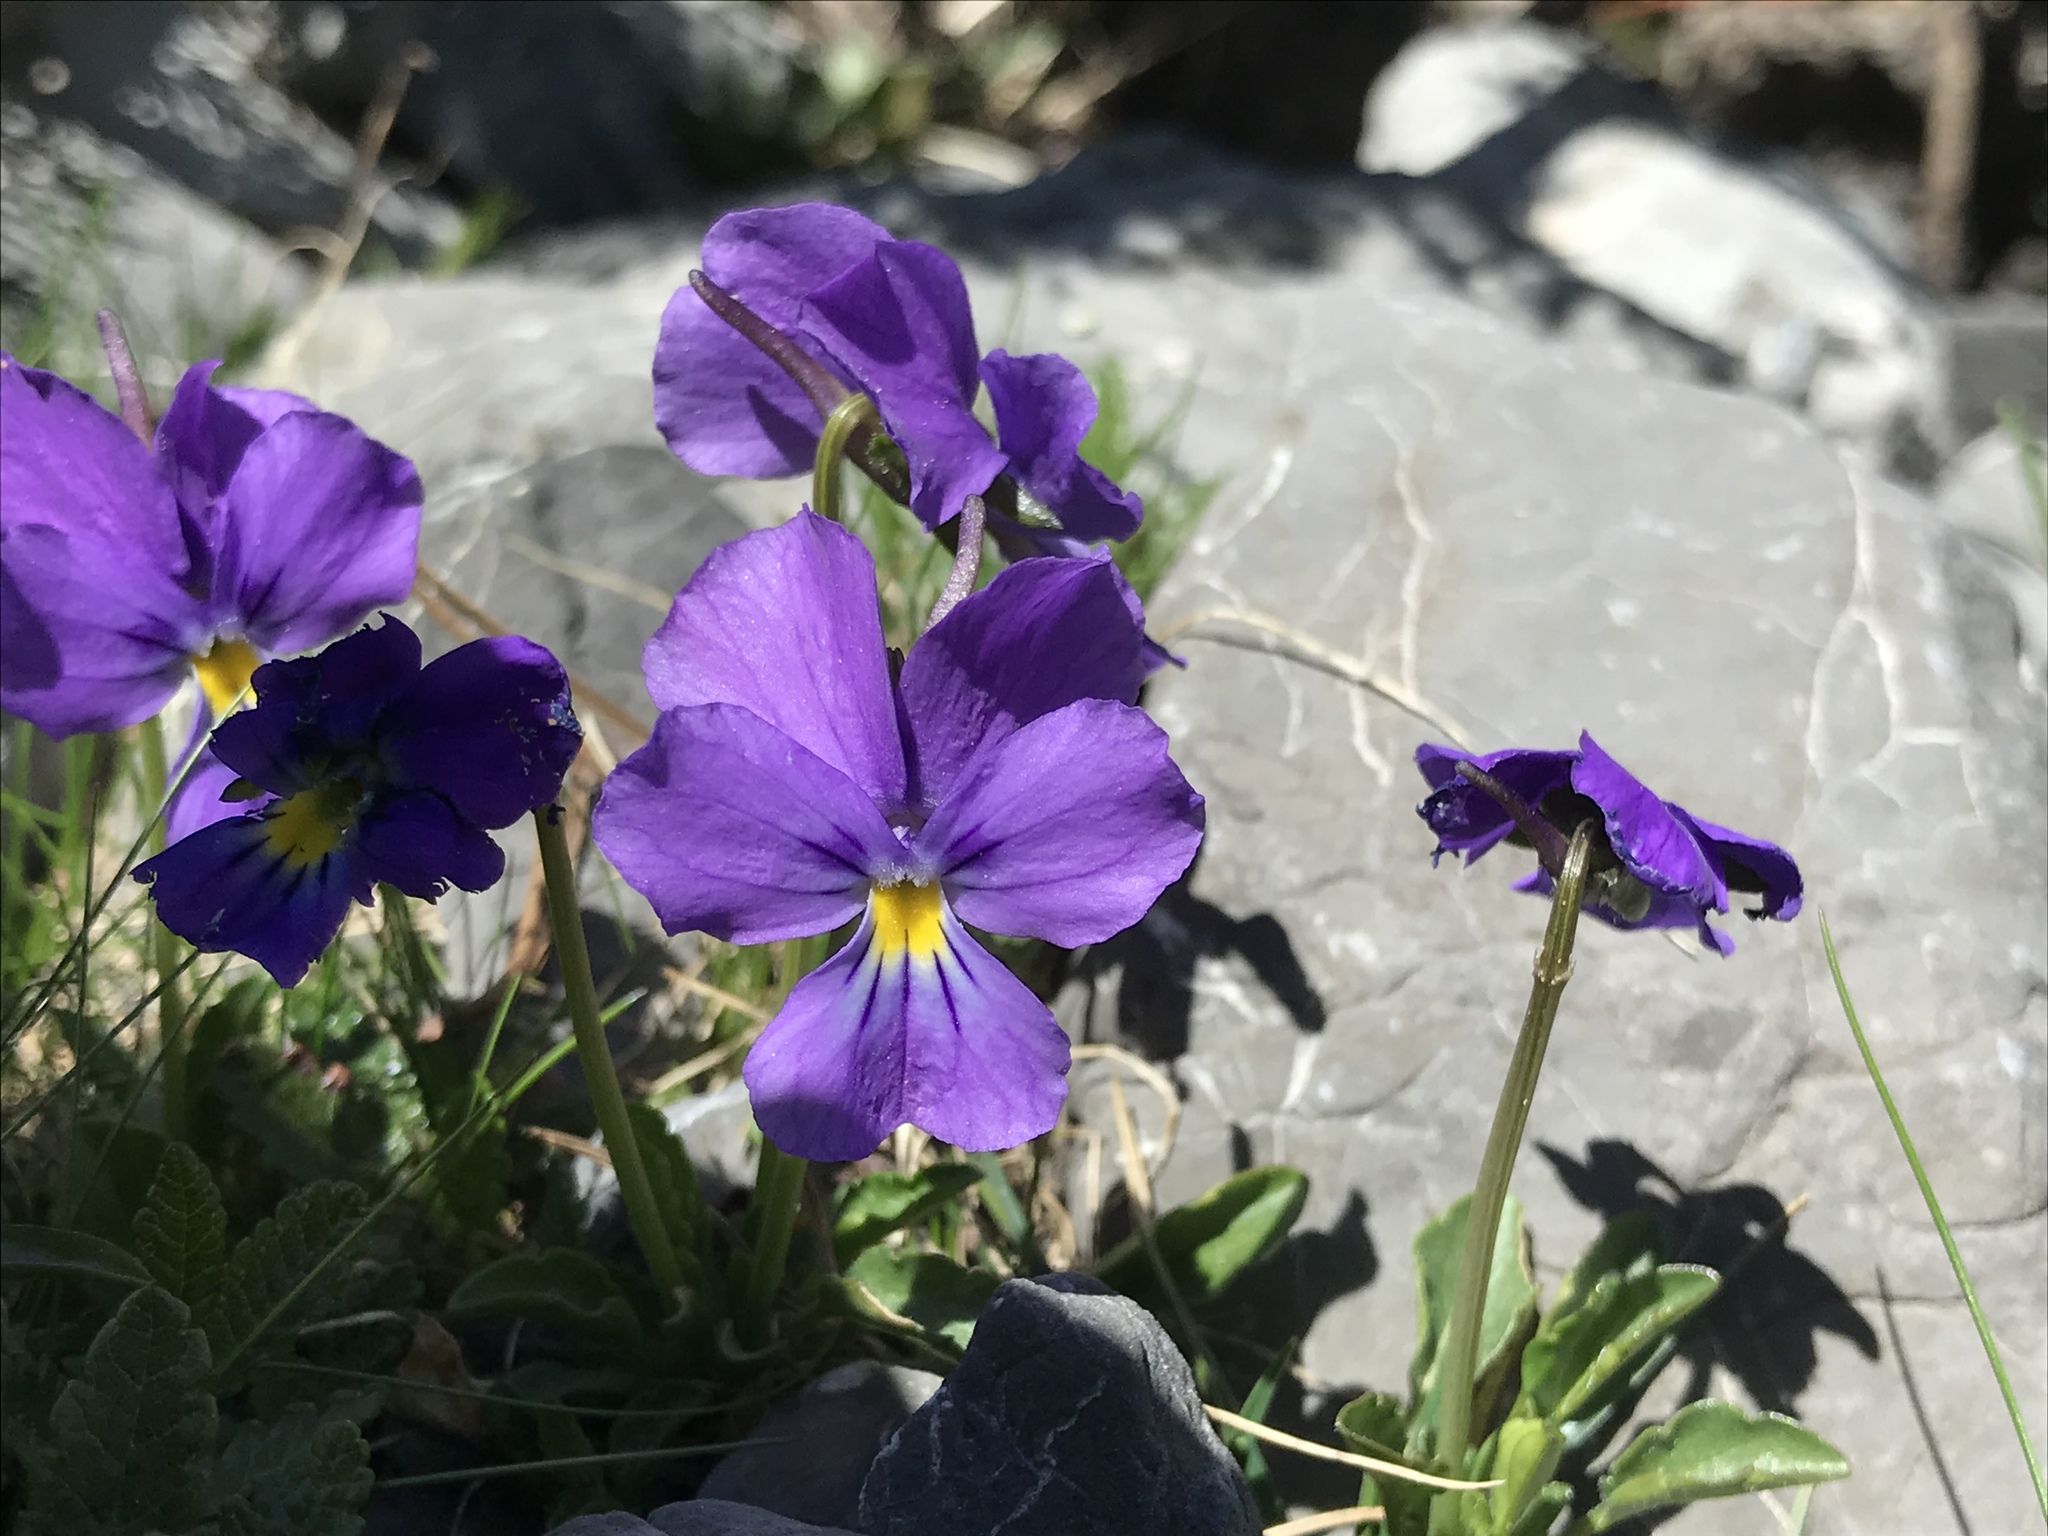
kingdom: Plantae
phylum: Tracheophyta
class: Magnoliopsida
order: Malpighiales
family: Violaceae
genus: Viola
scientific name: Viola calcarata
